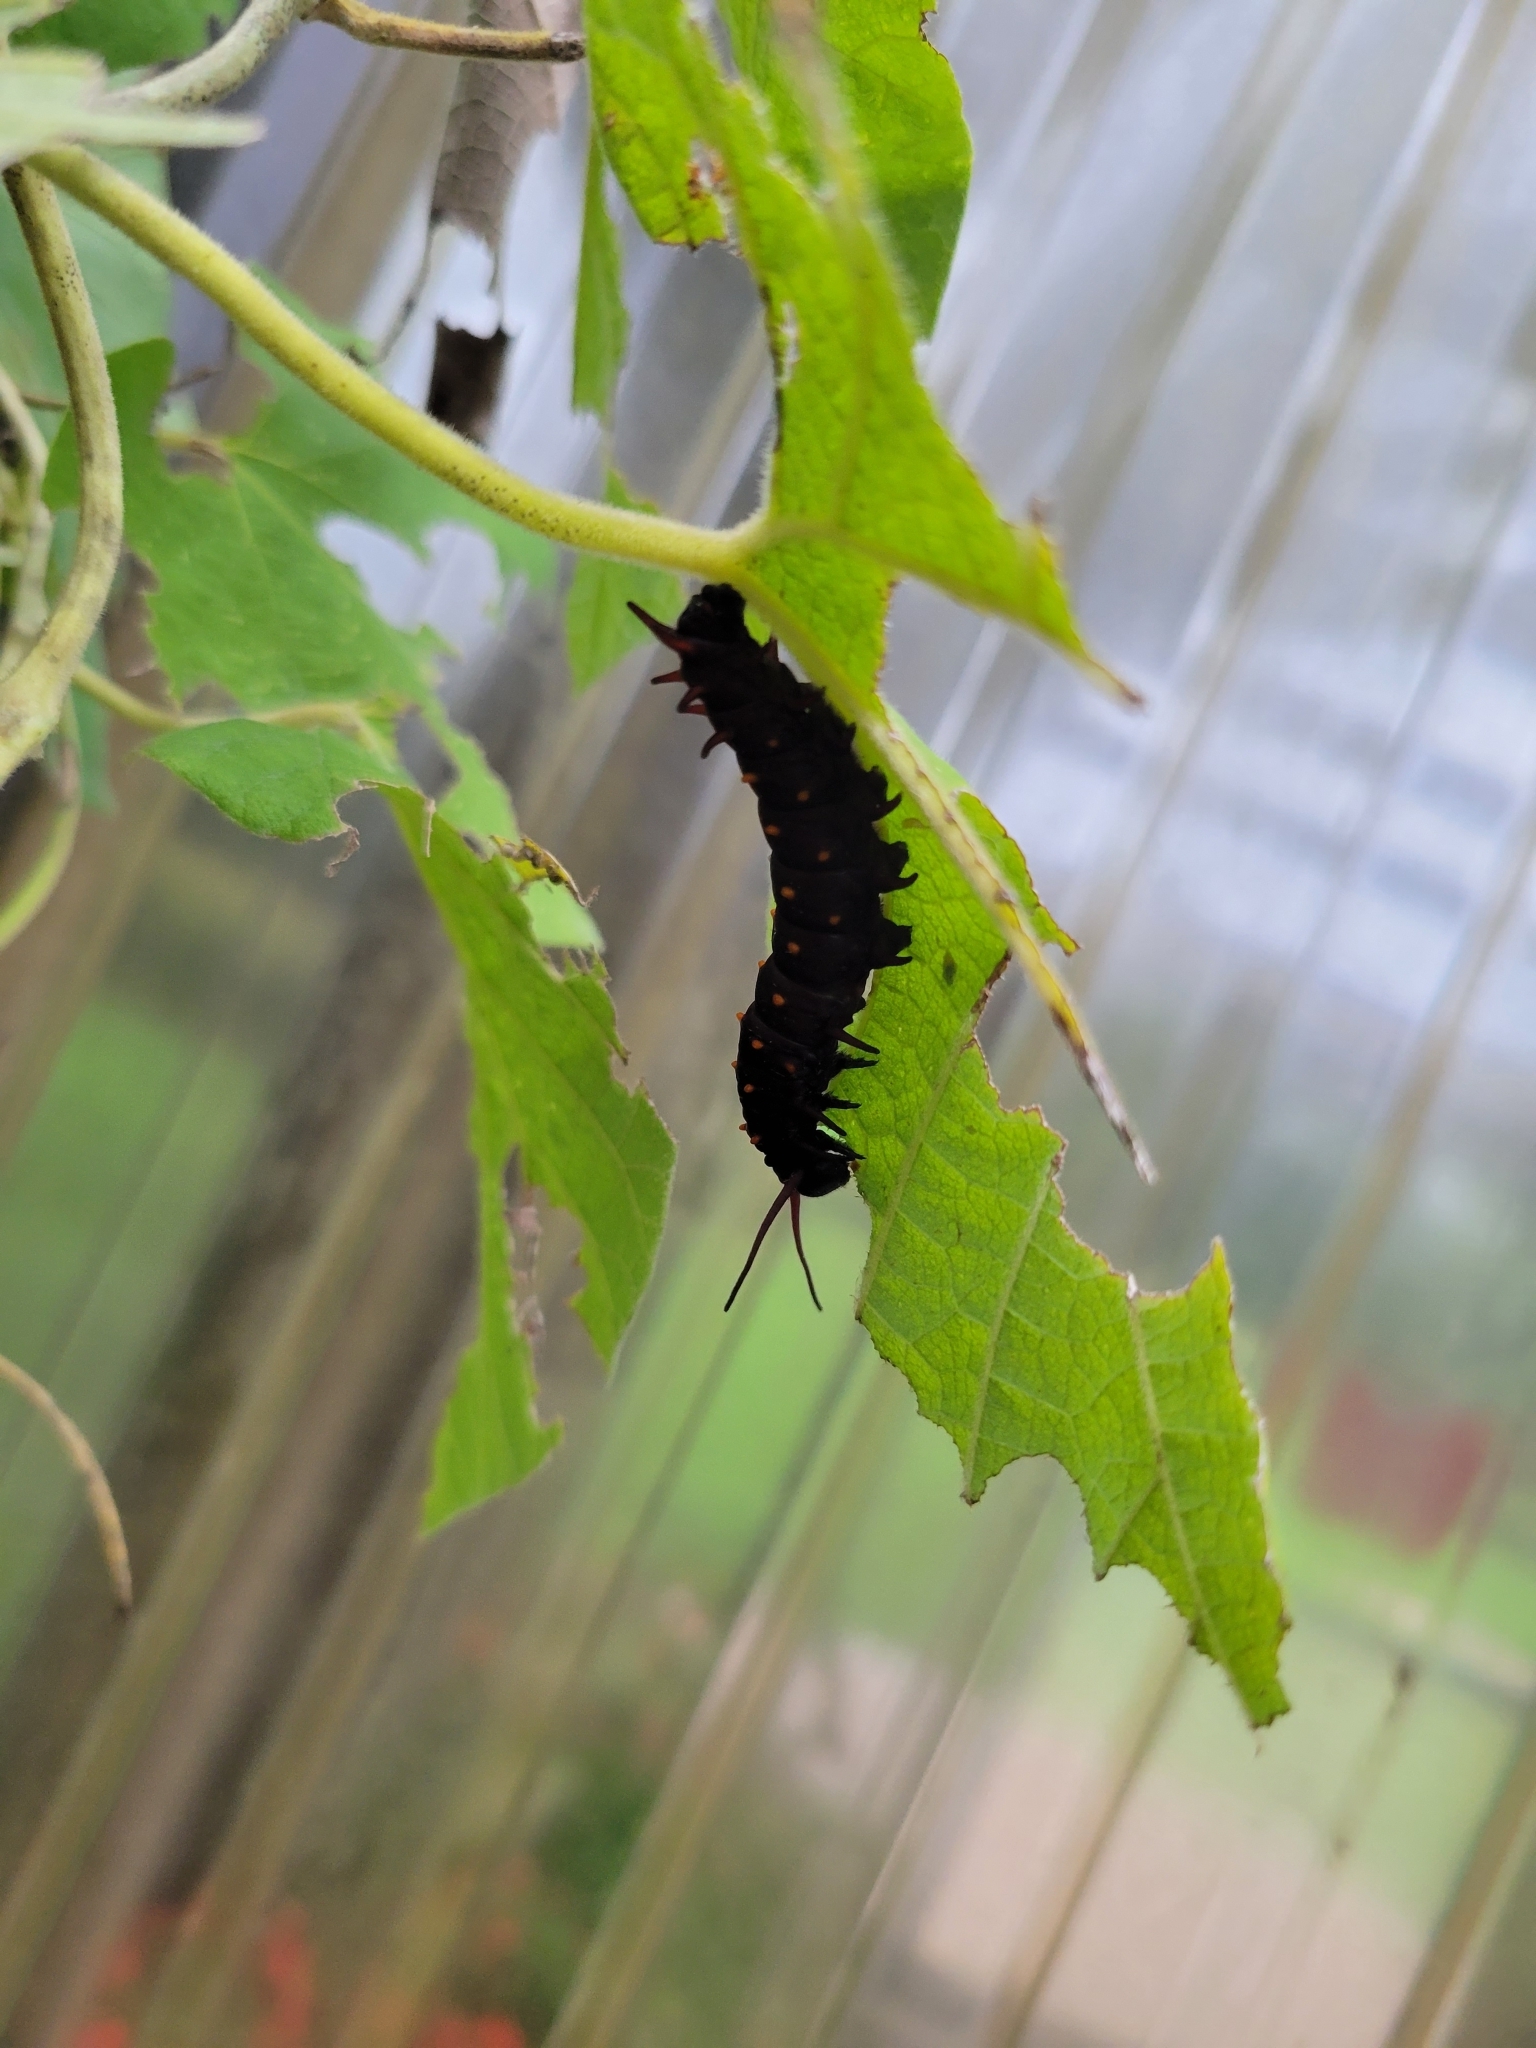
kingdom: Animalia
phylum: Arthropoda
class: Insecta
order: Lepidoptera
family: Papilionidae
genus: Battus
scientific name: Battus philenor
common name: Pipevine swallowtail
